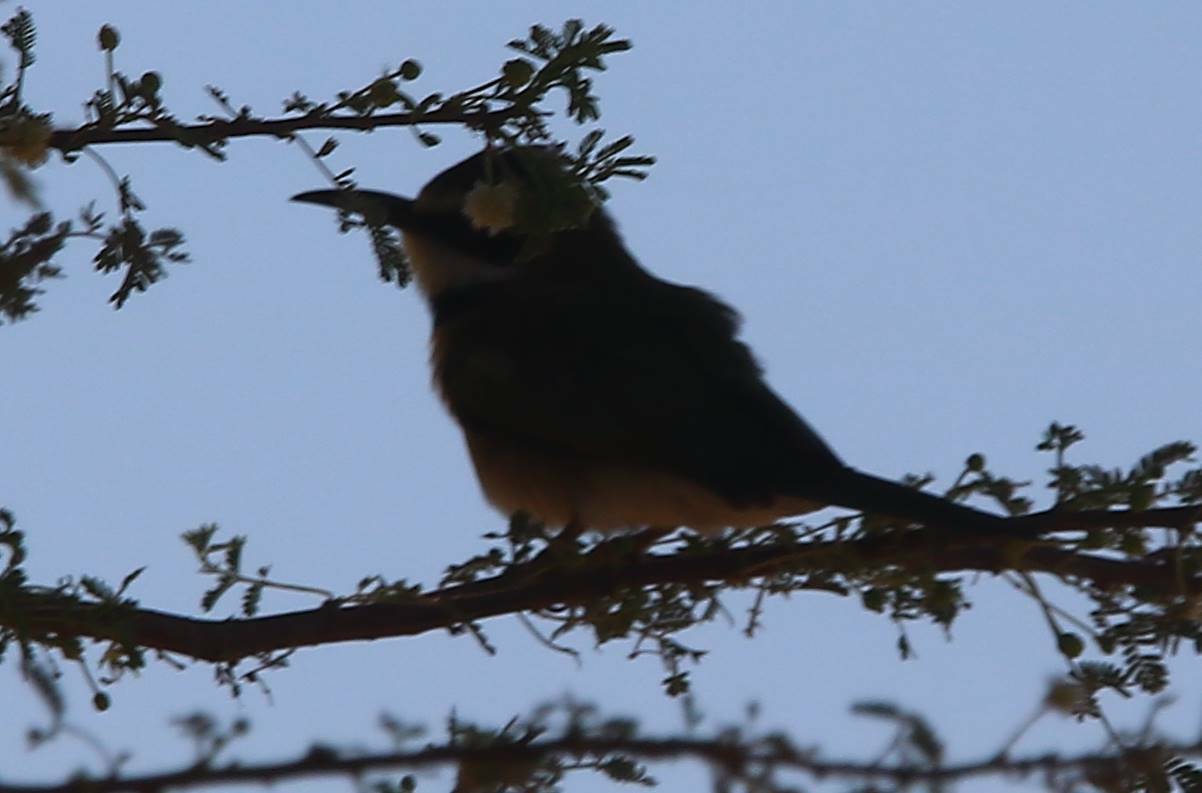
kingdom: Animalia
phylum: Chordata
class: Aves
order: Coraciiformes
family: Meropidae
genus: Merops
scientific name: Merops albicollis
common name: White-throated bee-eater
